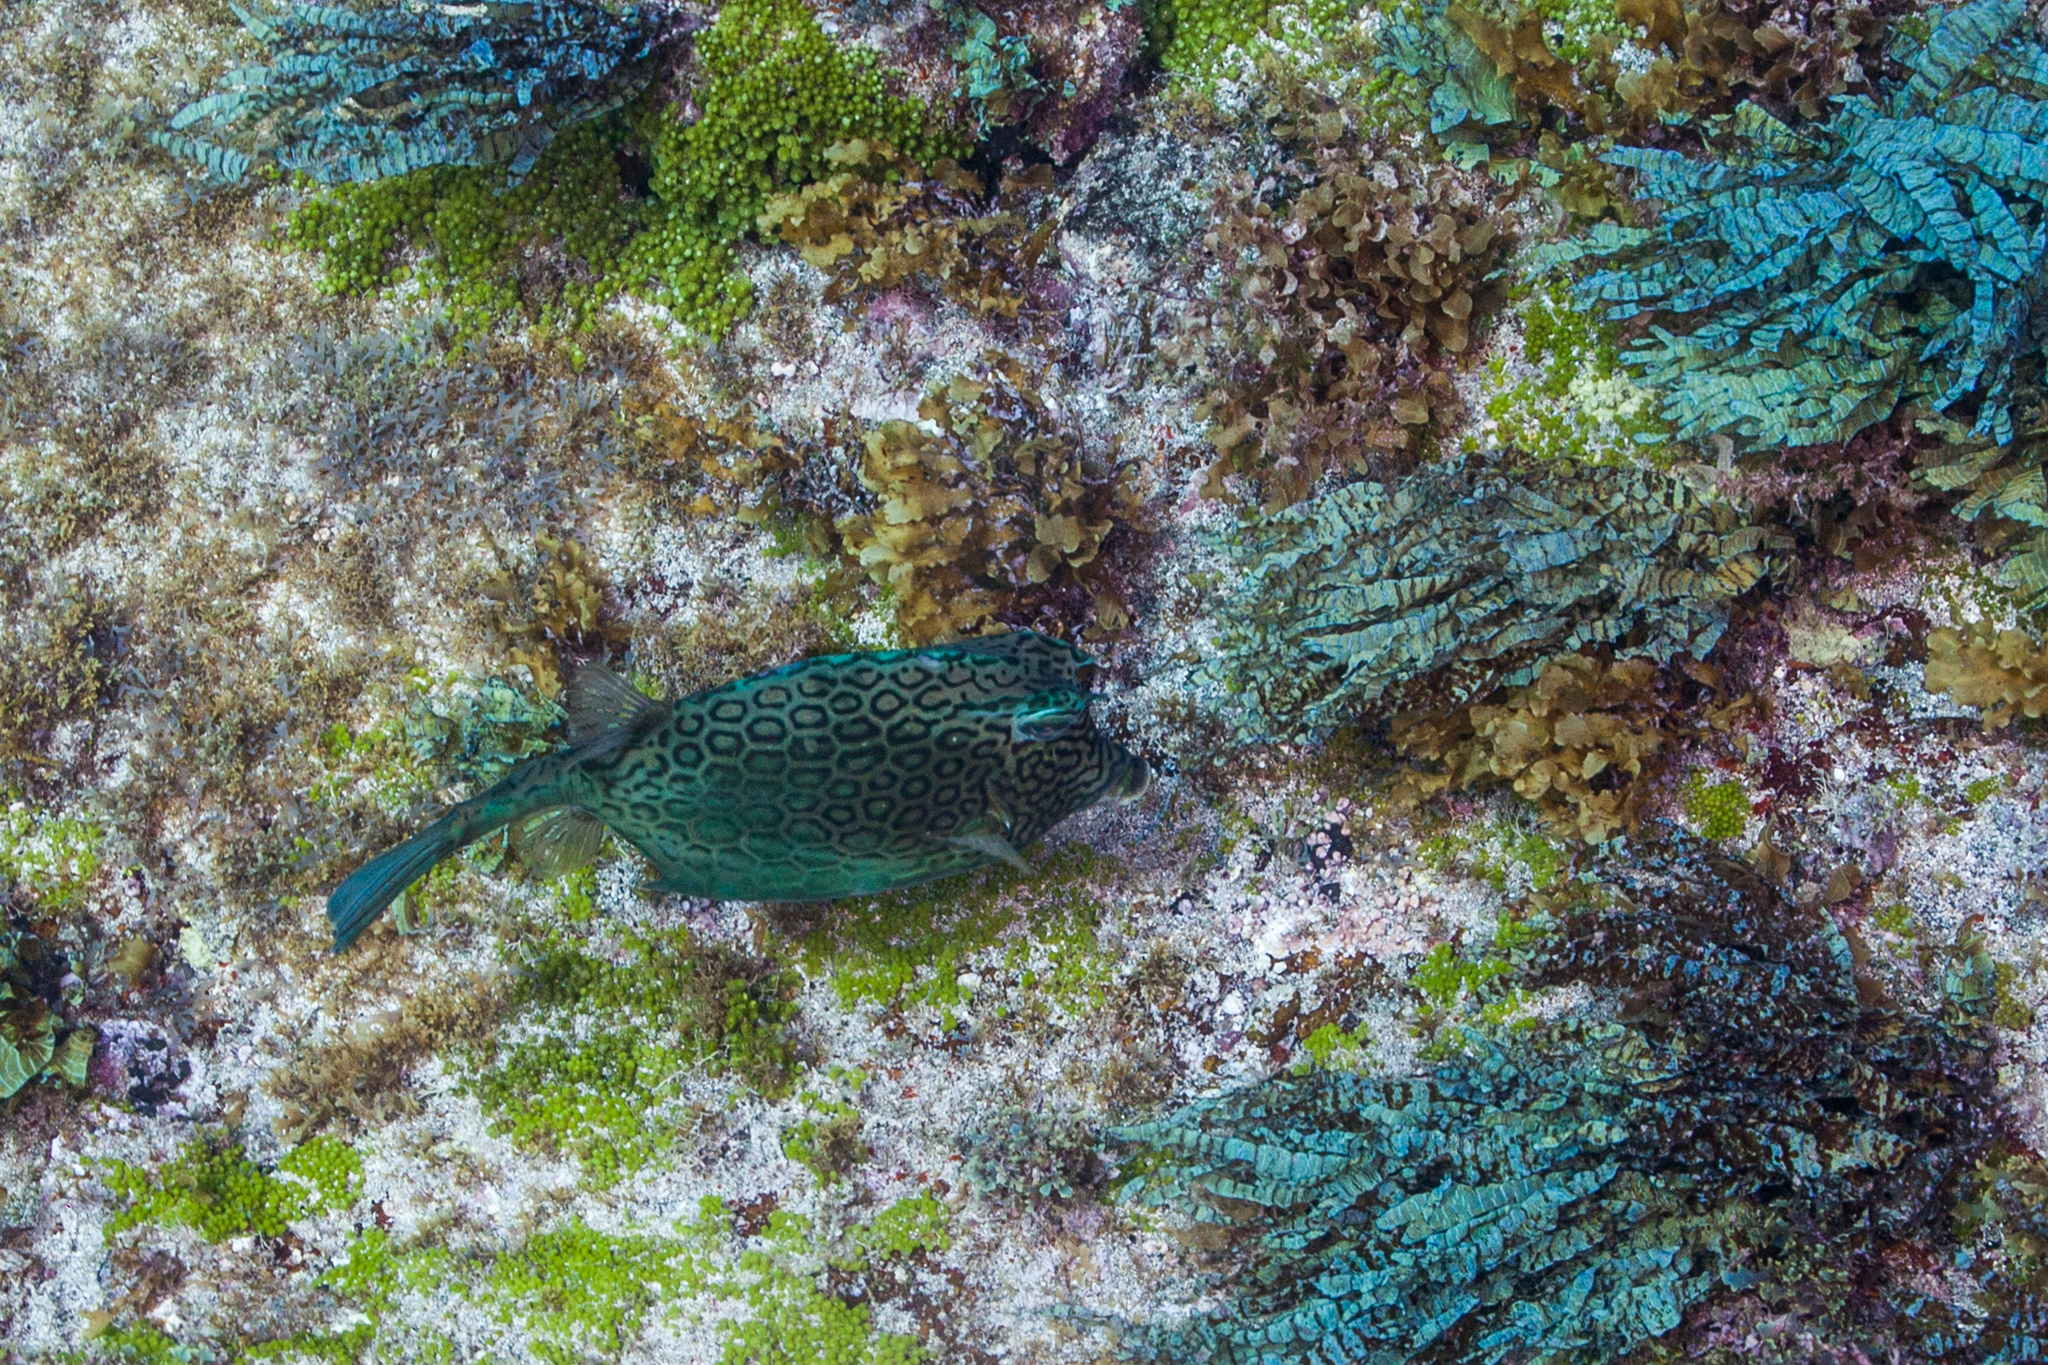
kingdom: Animalia
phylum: Chordata
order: Tetraodontiformes
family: Ostraciidae
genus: Acanthostracion
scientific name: Acanthostracion polygonius
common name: Honeycomb cowfish
